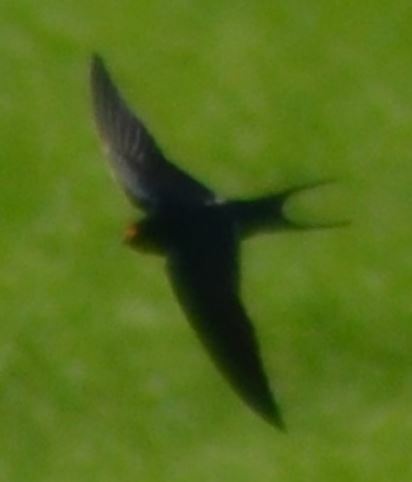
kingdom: Animalia
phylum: Chordata
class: Aves
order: Passeriformes
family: Hirundinidae
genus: Hirundo
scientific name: Hirundo rustica
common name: Barn swallow
